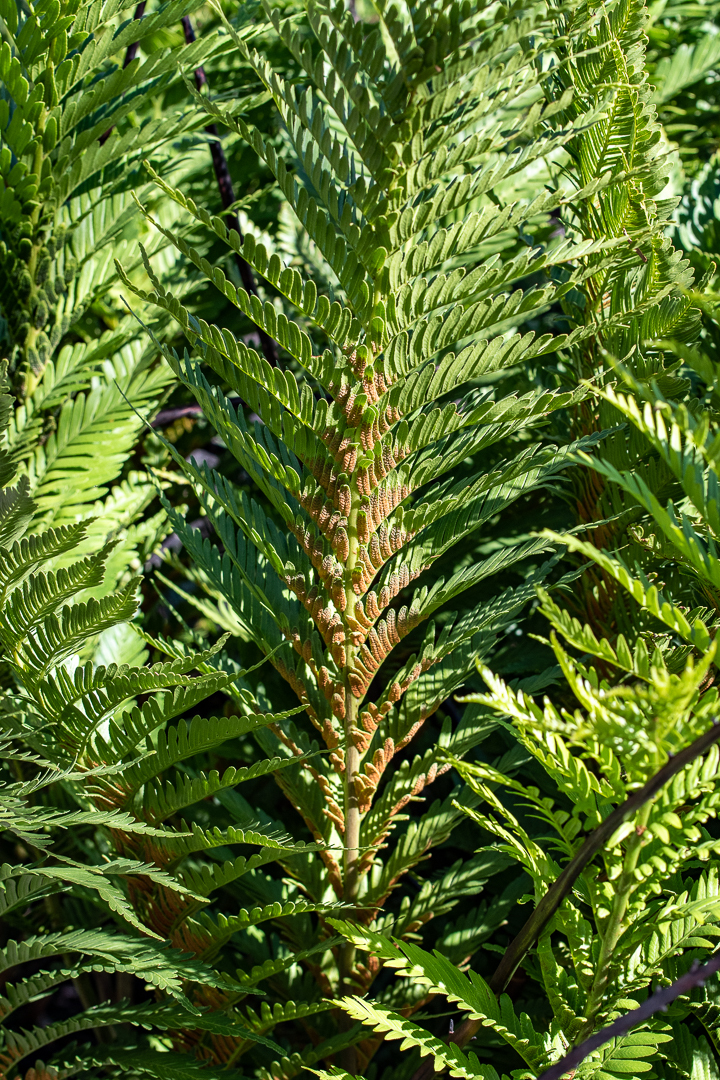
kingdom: Plantae
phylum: Tracheophyta
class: Polypodiopsida
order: Osmundales
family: Osmundaceae
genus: Todea
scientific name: Todea barbara
